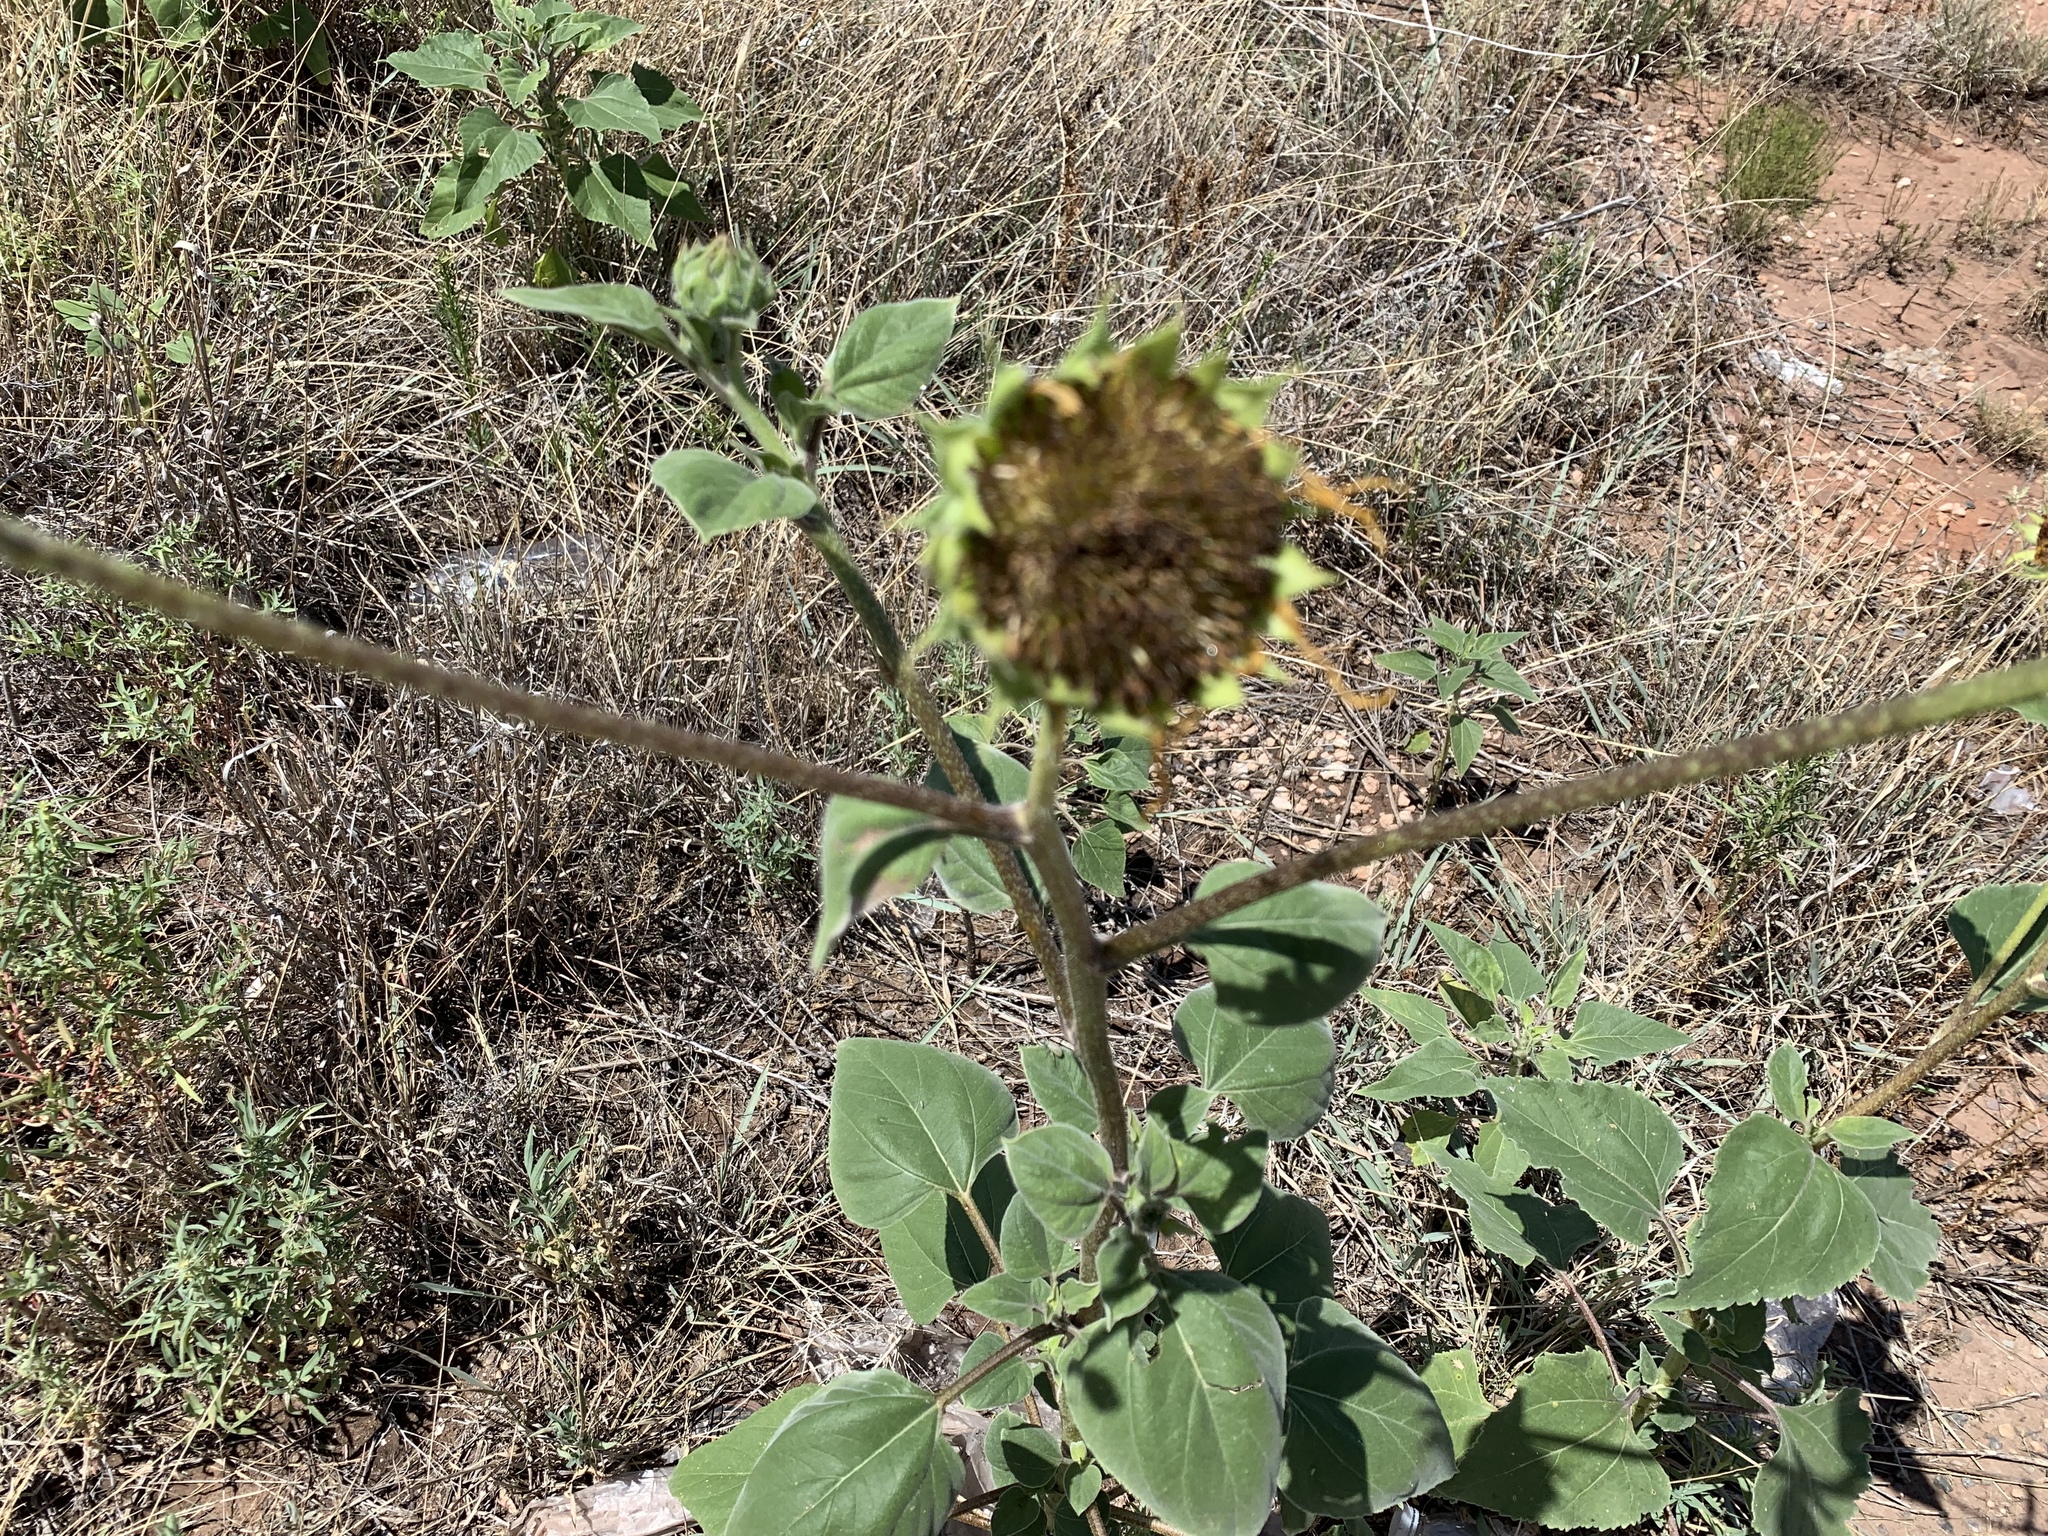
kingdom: Plantae
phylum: Tracheophyta
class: Magnoliopsida
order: Asterales
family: Asteraceae
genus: Helianthus
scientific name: Helianthus annuus
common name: Sunflower
